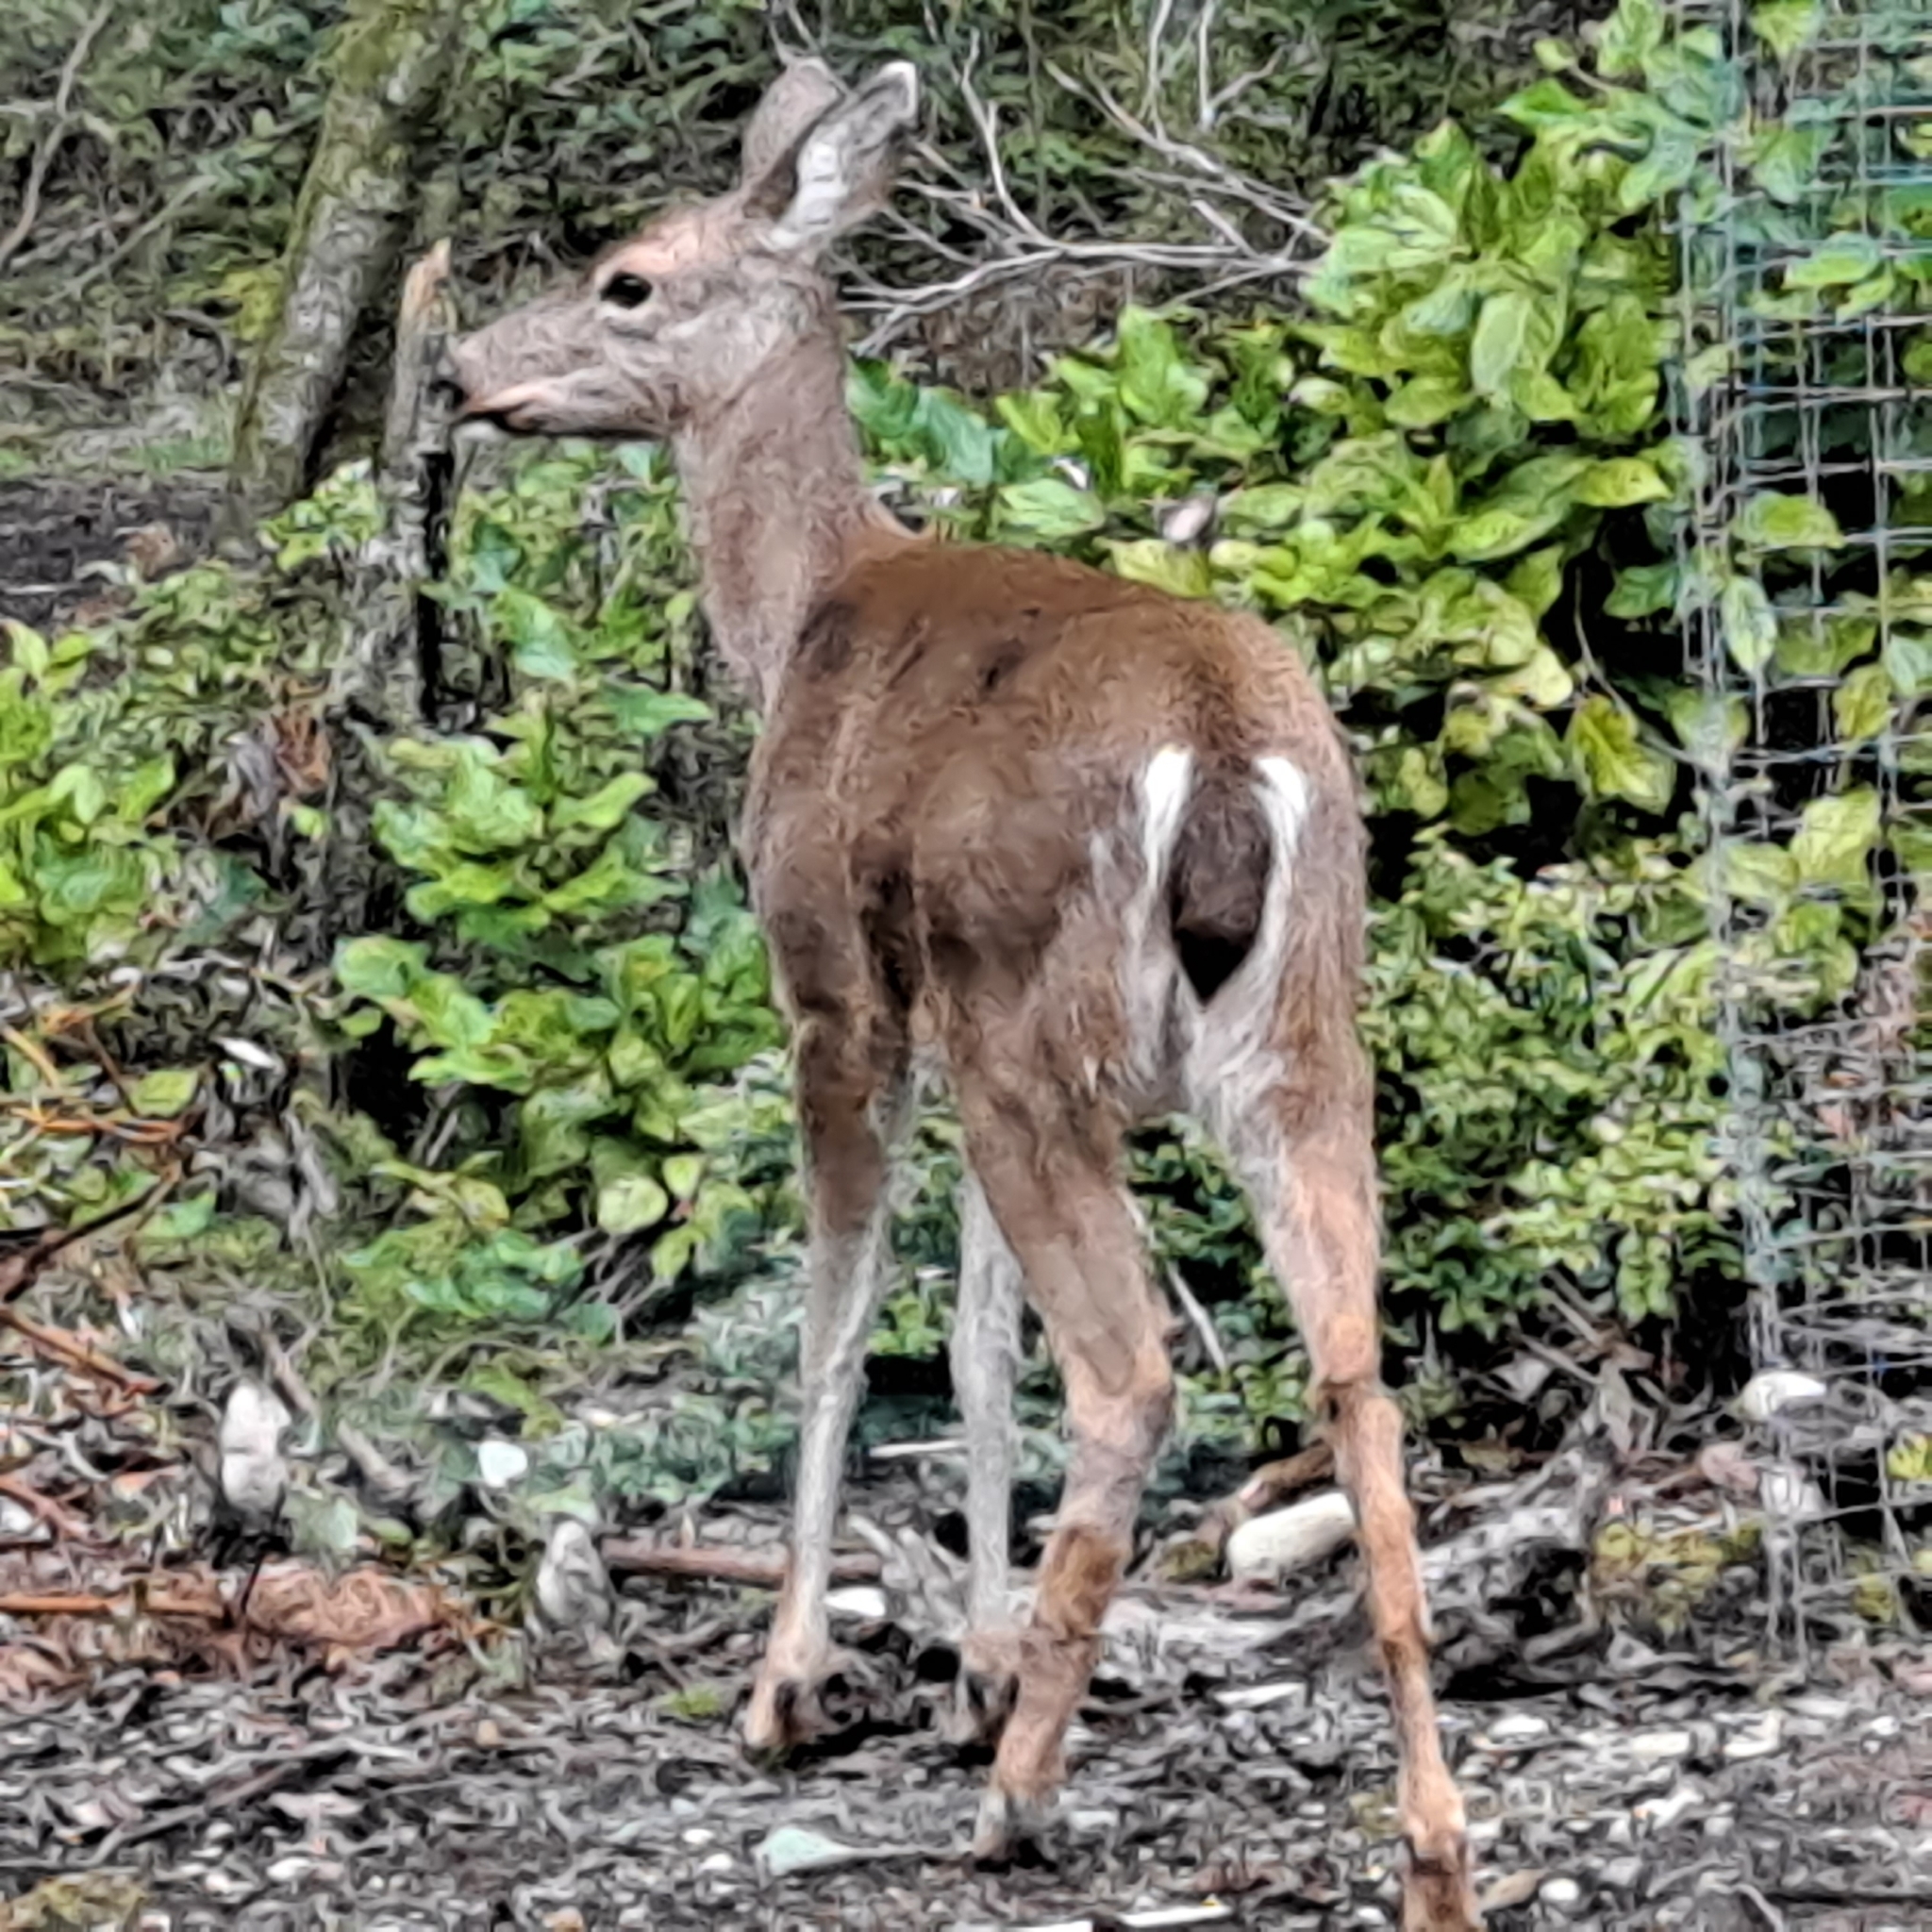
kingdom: Animalia
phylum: Chordata
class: Mammalia
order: Artiodactyla
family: Cervidae
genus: Odocoileus
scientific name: Odocoileus hemionus
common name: Mule deer
